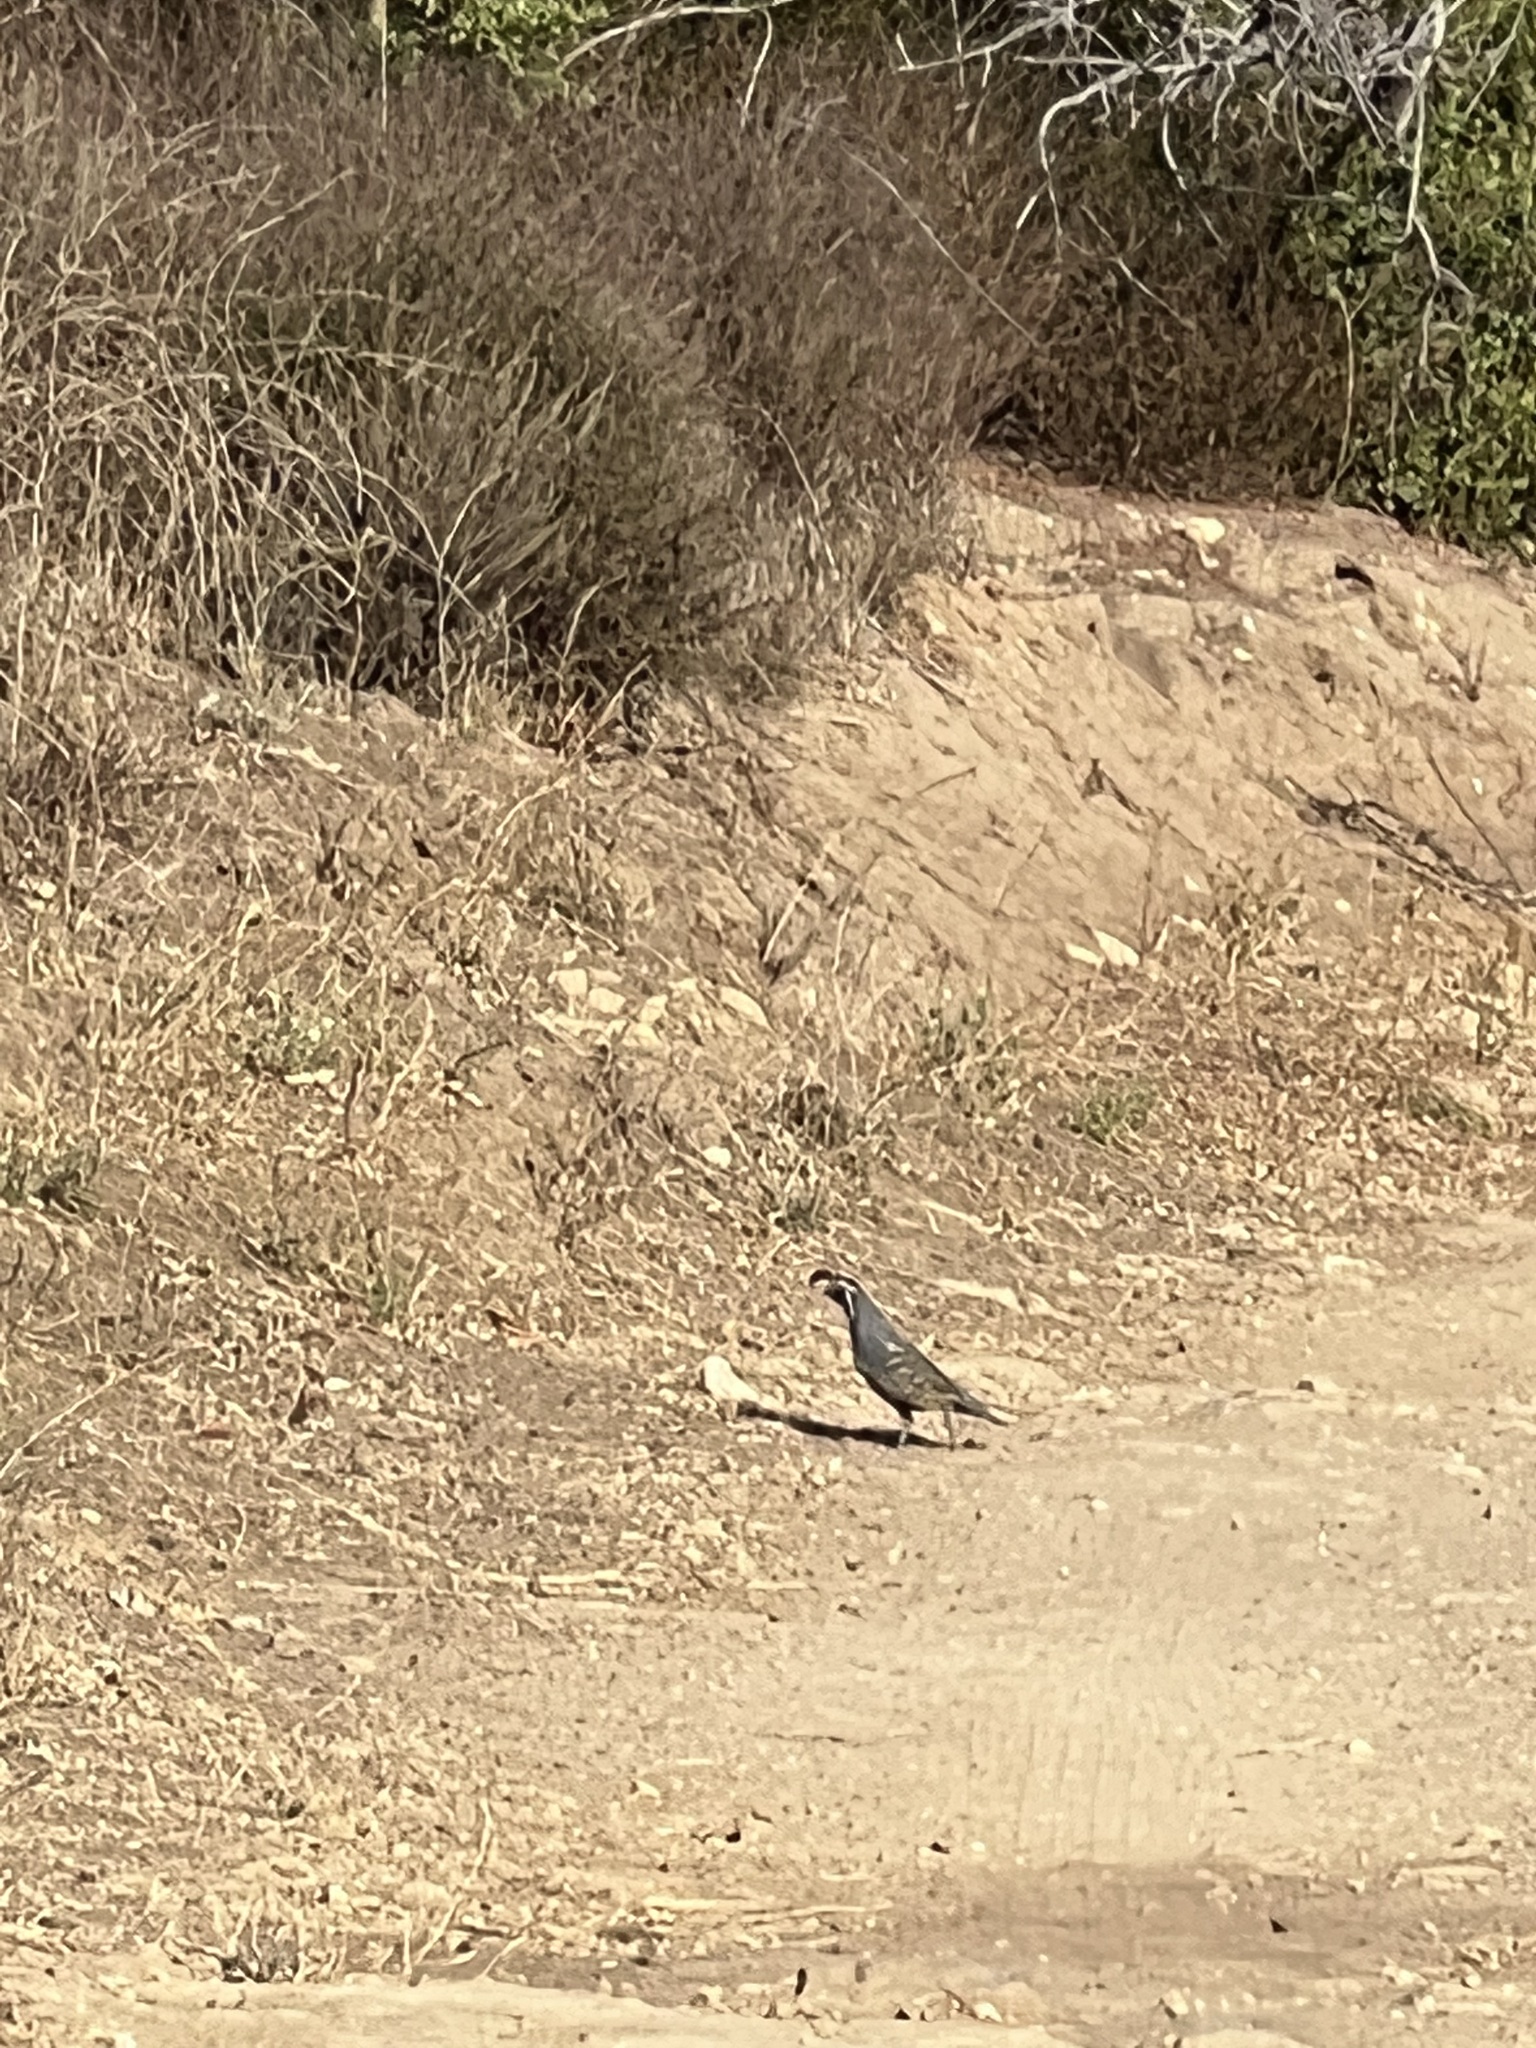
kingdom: Animalia
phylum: Chordata
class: Aves
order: Galliformes
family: Odontophoridae
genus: Callipepla
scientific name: Callipepla californica
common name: California quail
